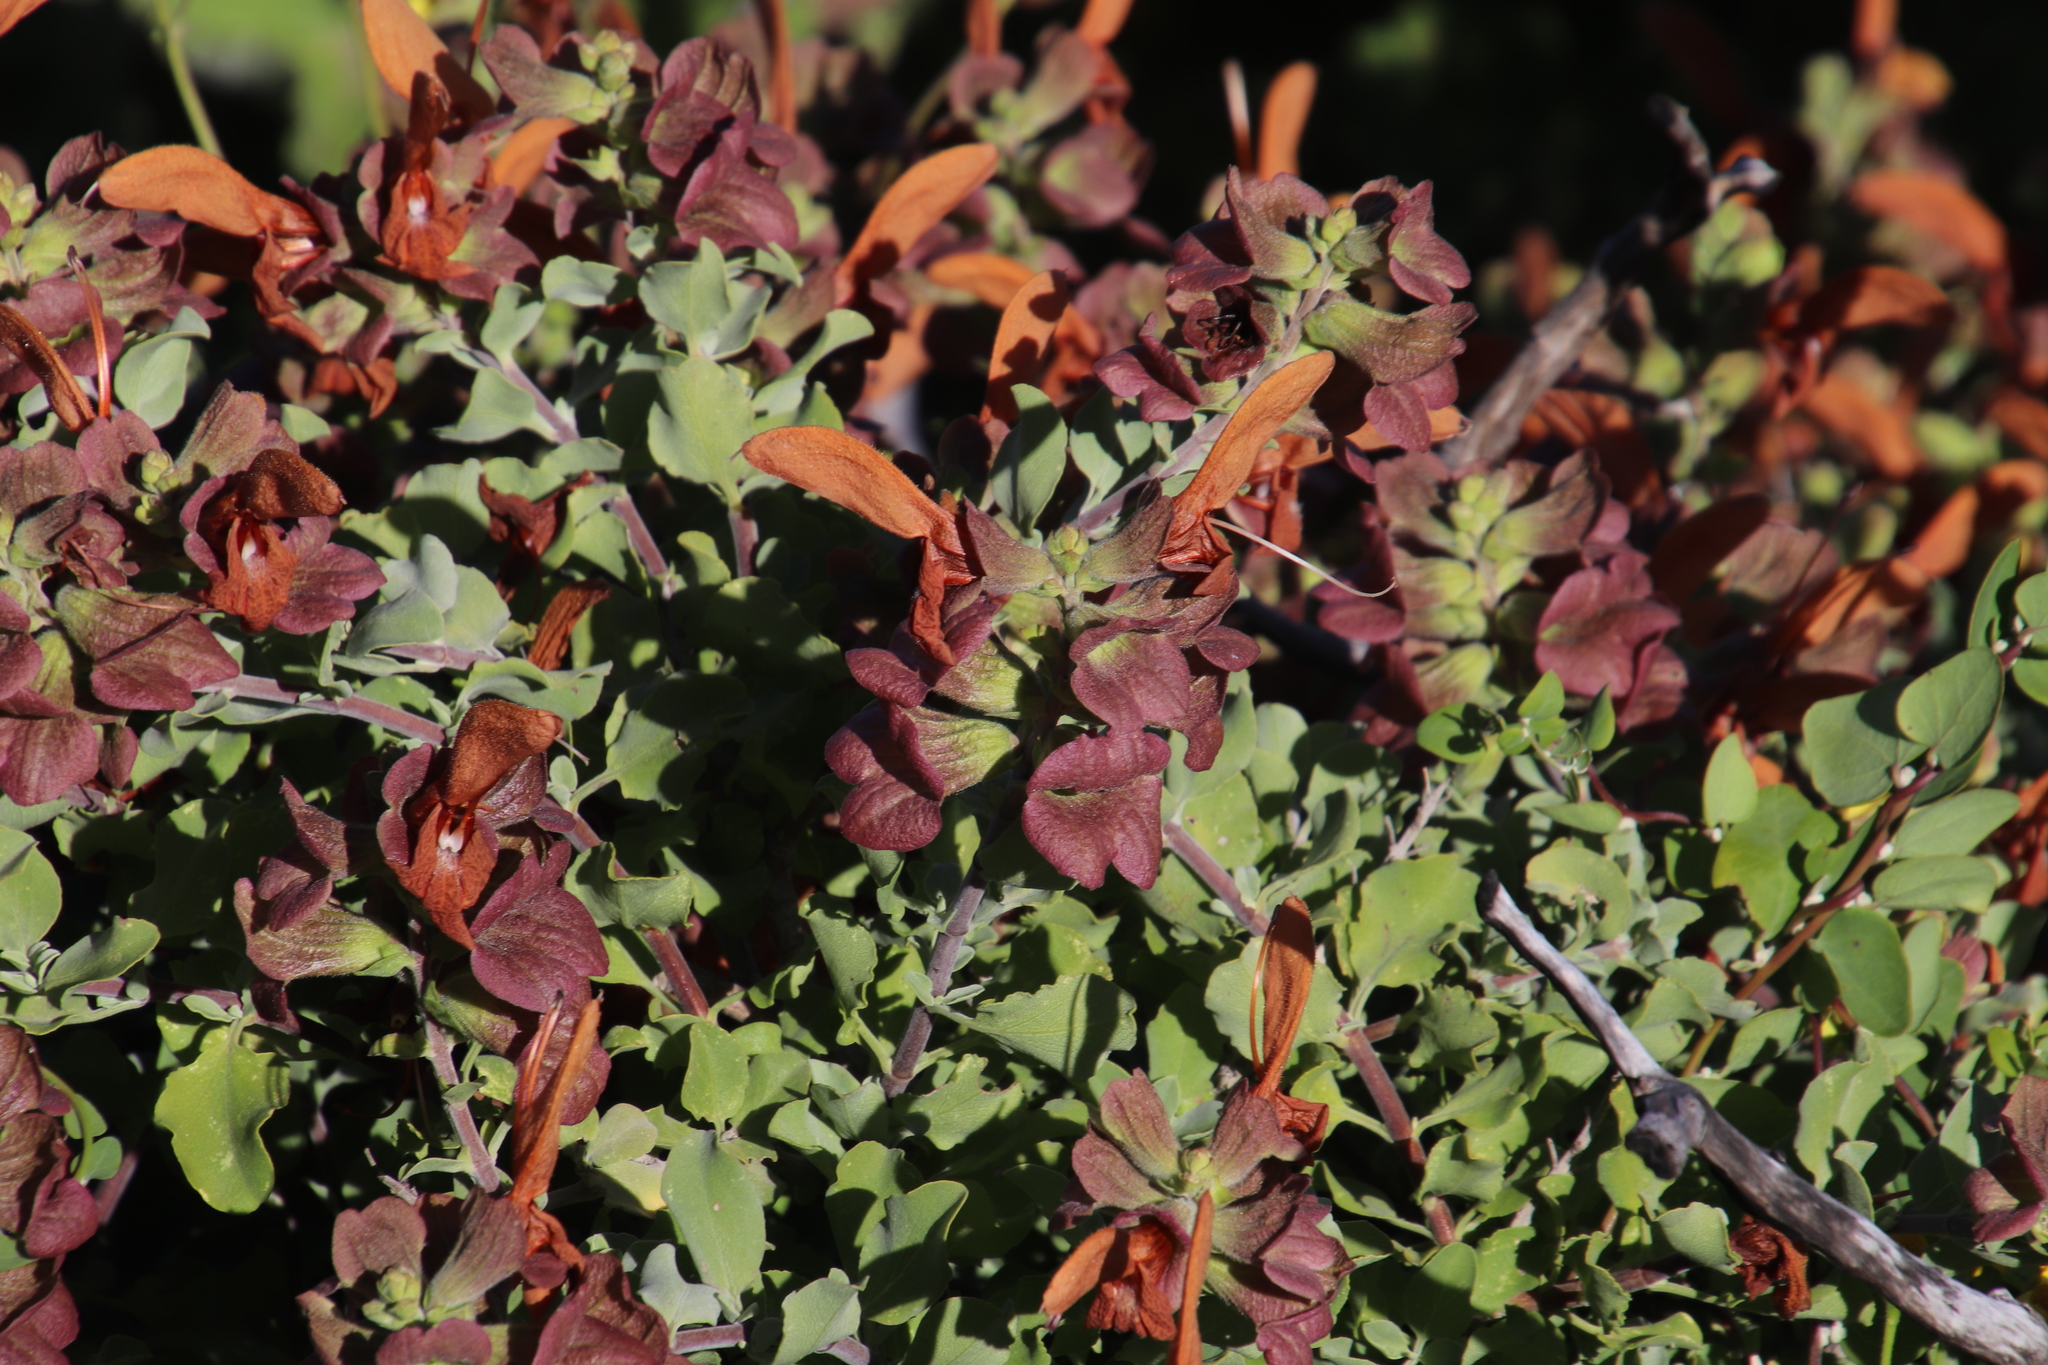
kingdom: Plantae
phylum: Tracheophyta
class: Magnoliopsida
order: Lamiales
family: Lamiaceae
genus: Salvia
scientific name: Salvia aurea
